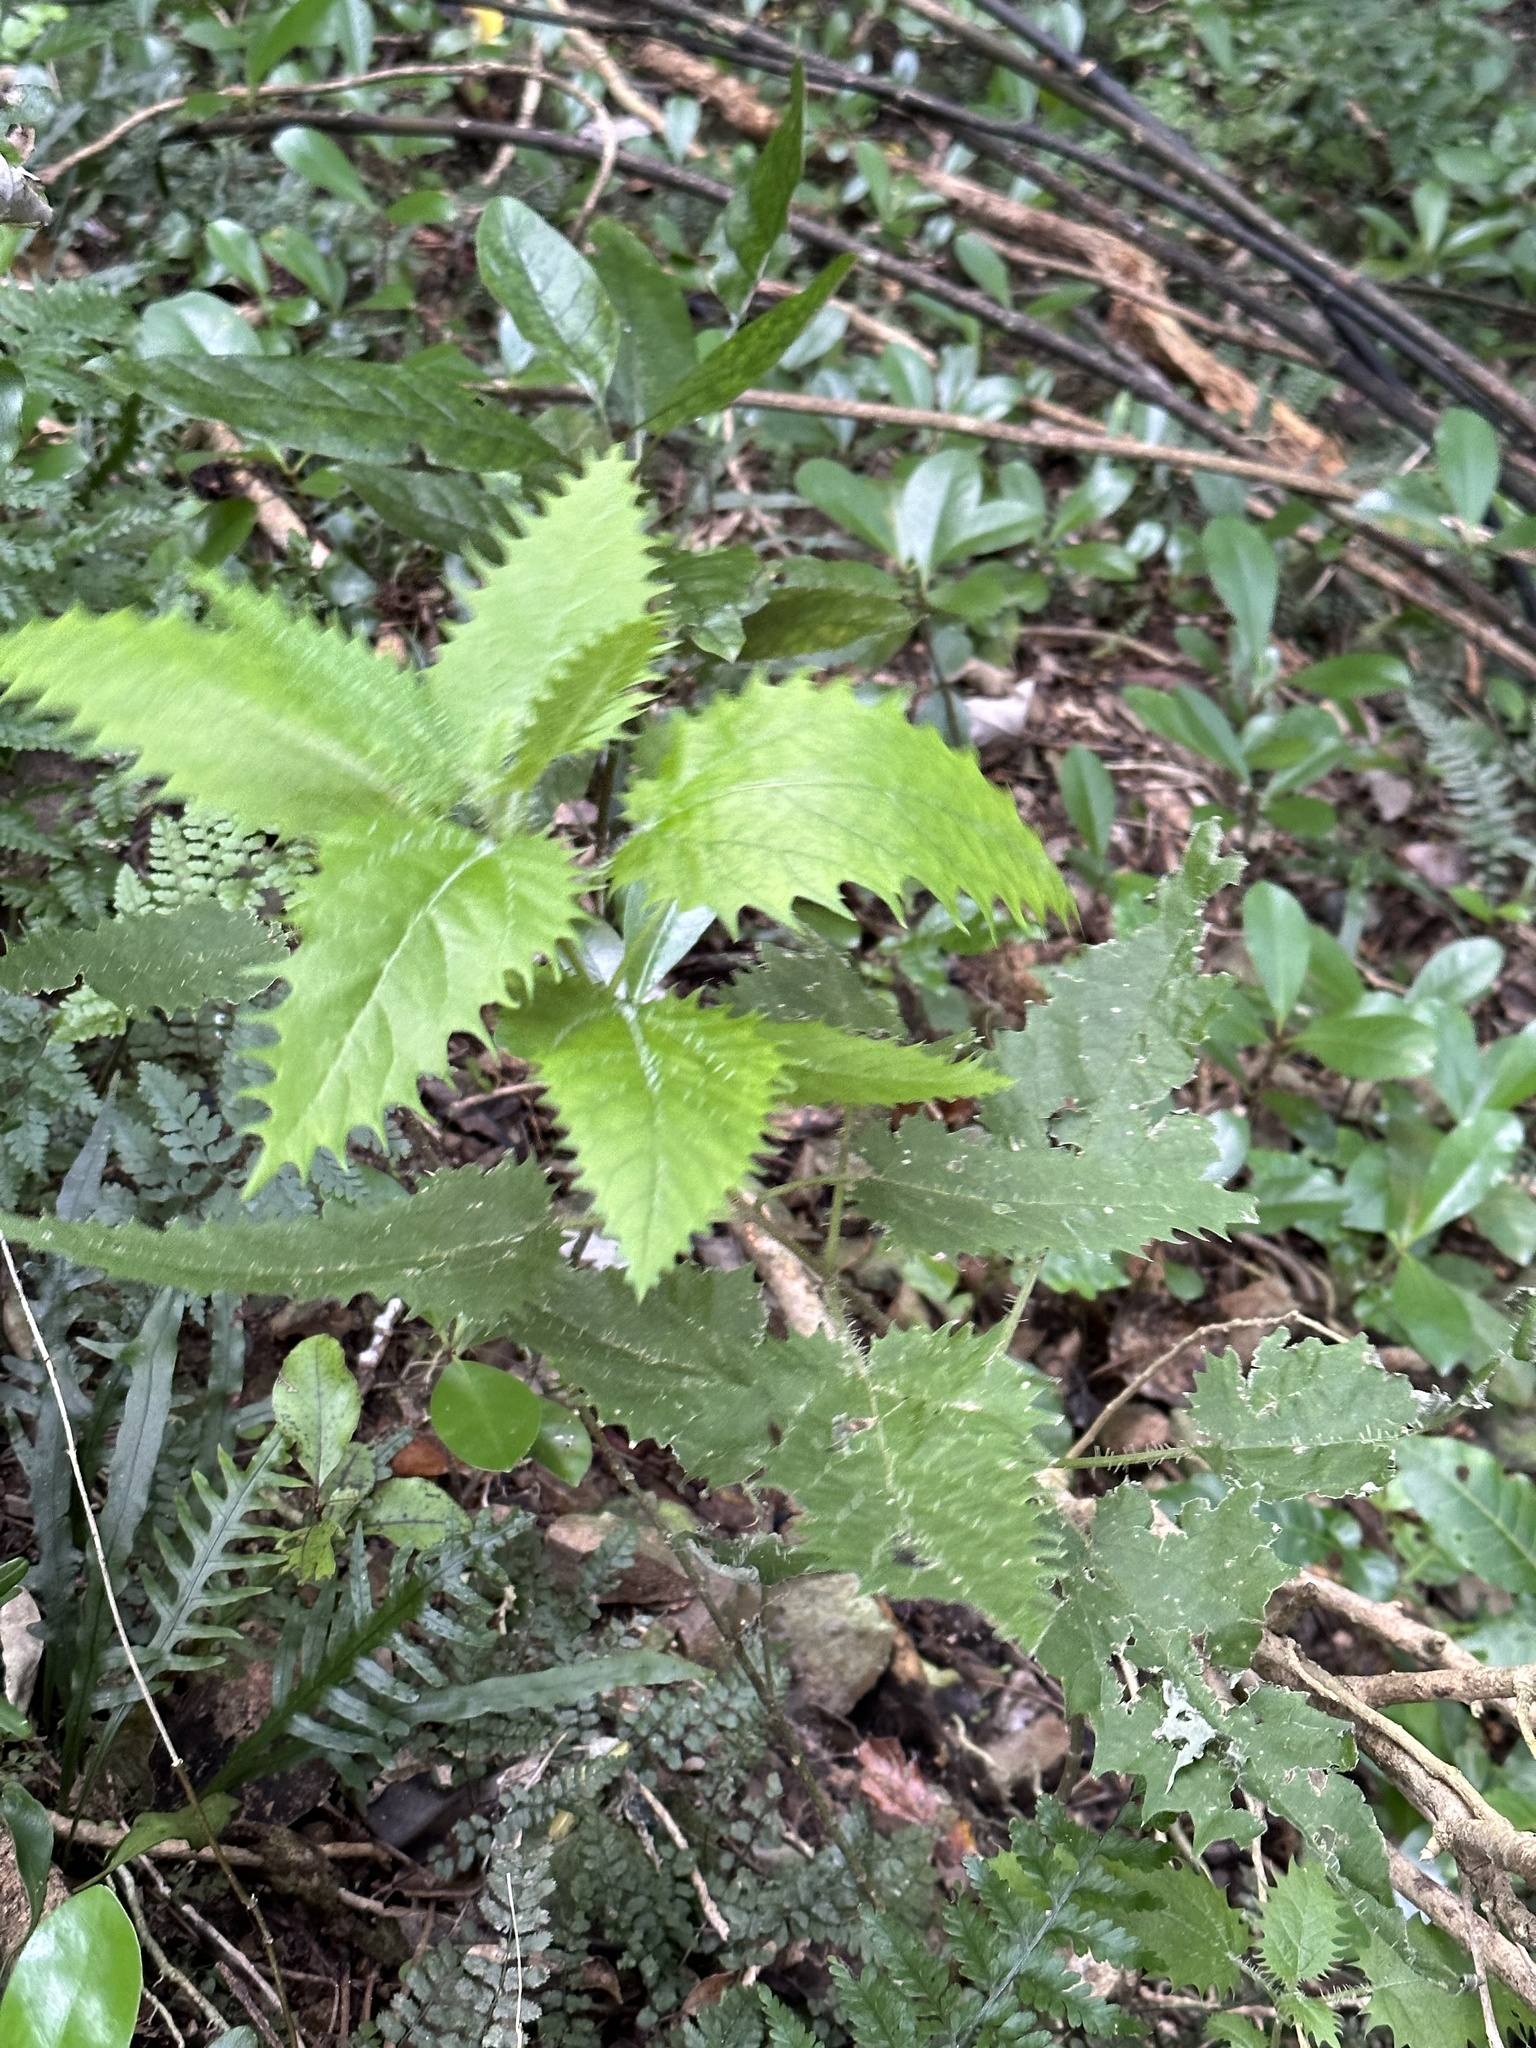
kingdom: Plantae
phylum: Tracheophyta
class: Magnoliopsida
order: Rosales
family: Urticaceae
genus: Urtica
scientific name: Urtica ferox
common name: Tree nettle
